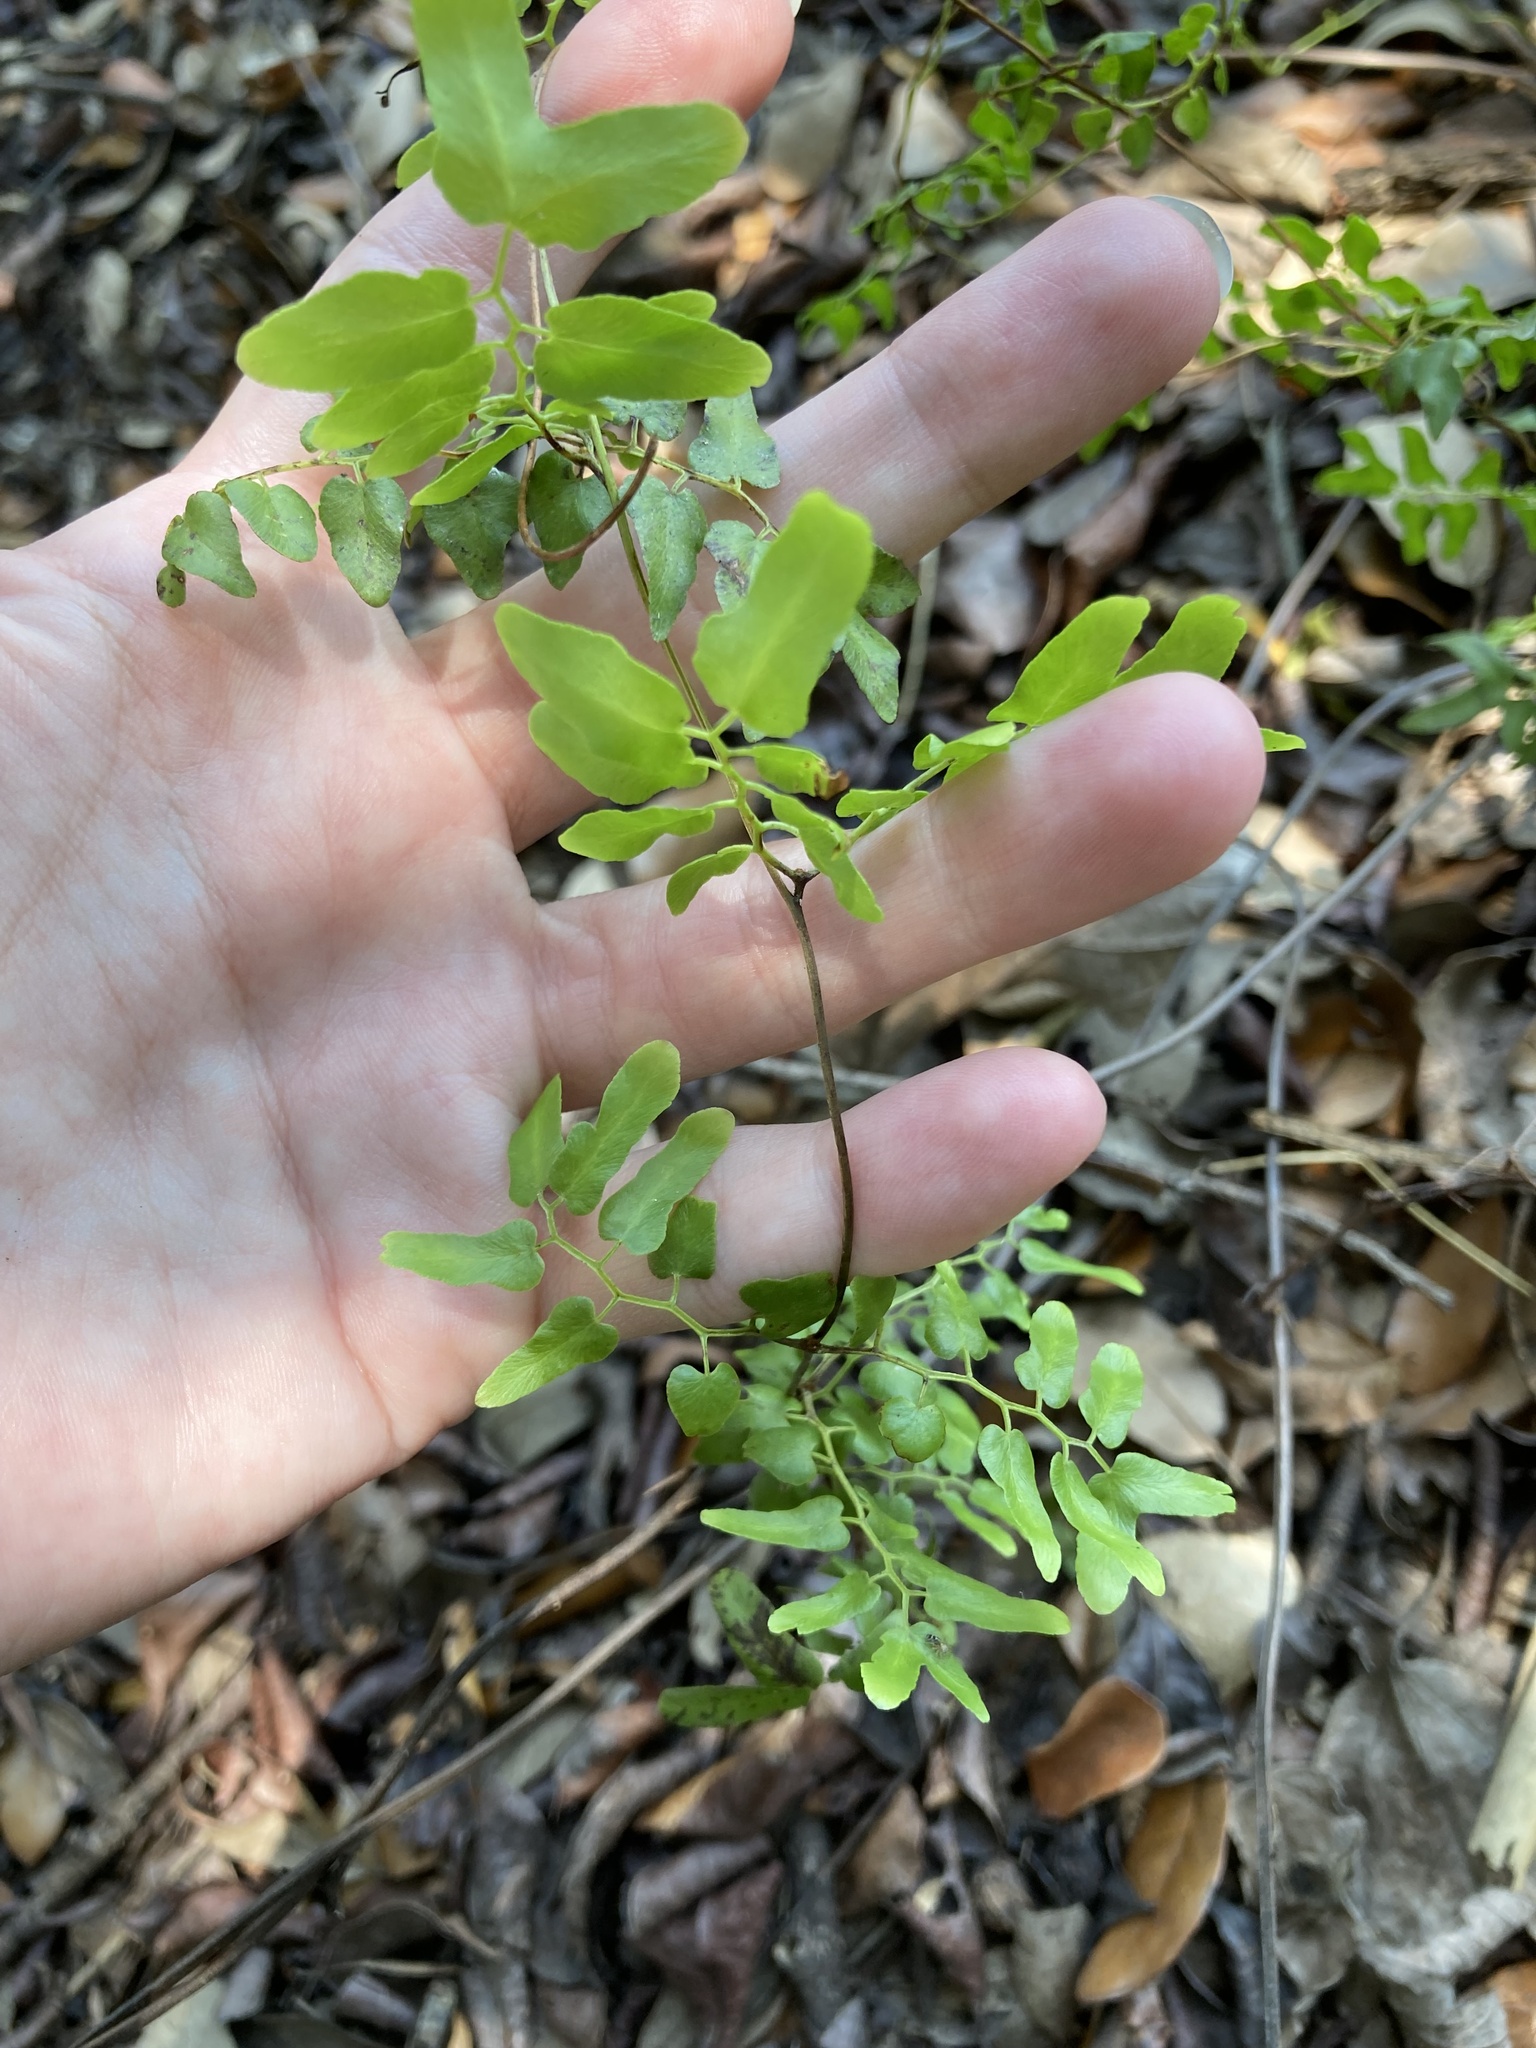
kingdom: Plantae
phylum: Tracheophyta
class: Polypodiopsida
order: Schizaeales
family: Lygodiaceae
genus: Lygodium
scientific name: Lygodium microphyllum
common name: Small-leaf climbing fern
